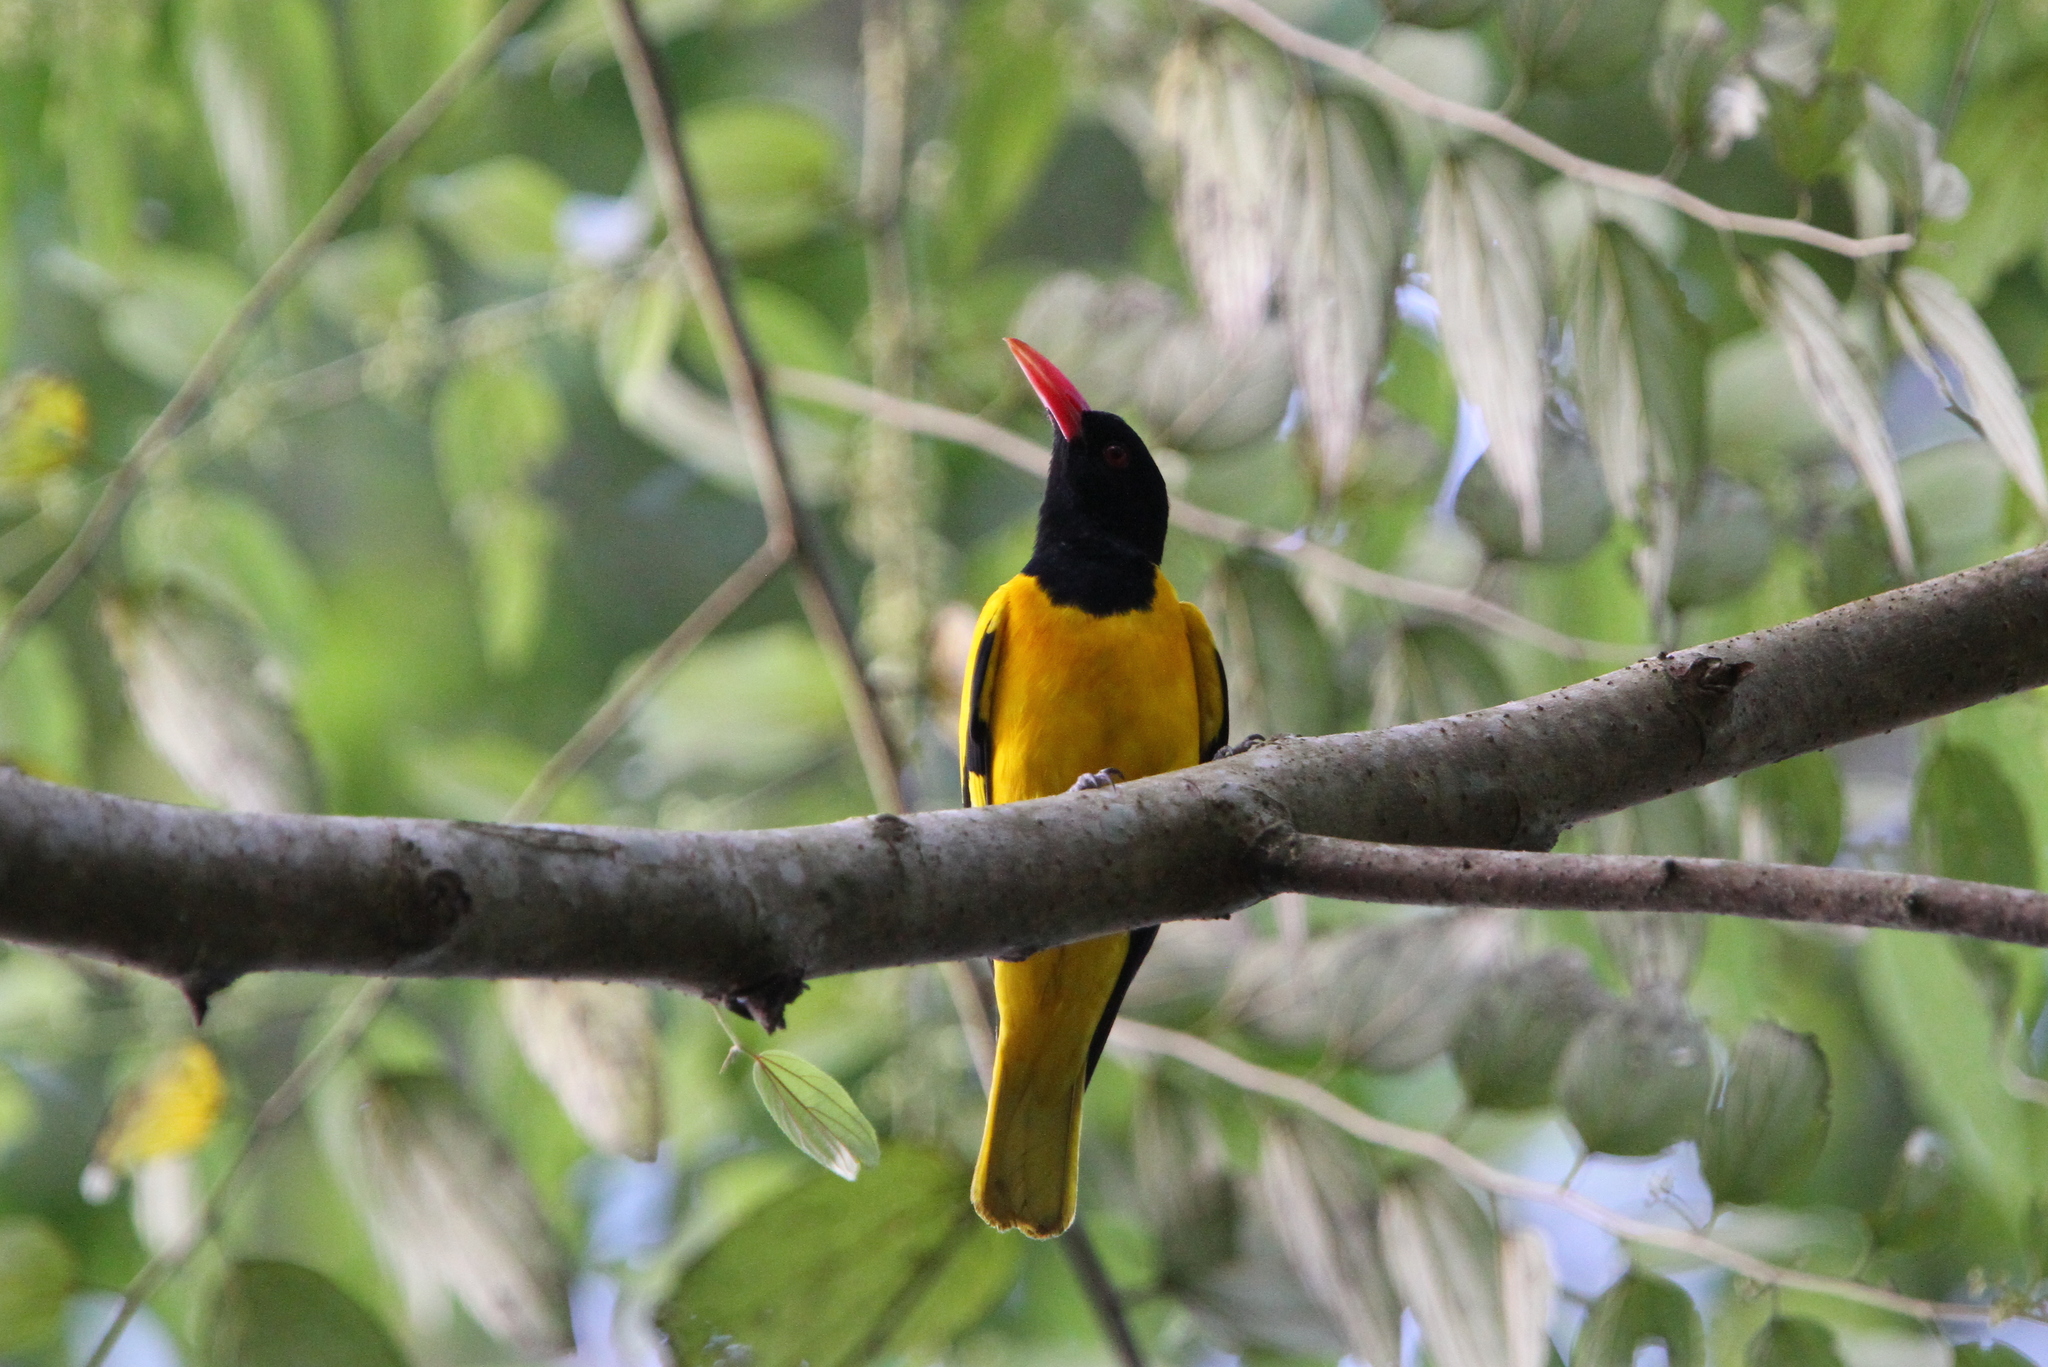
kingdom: Animalia
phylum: Chordata
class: Aves
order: Passeriformes
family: Oriolidae
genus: Oriolus
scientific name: Oriolus xanthornus
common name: Black-hooded oriole
